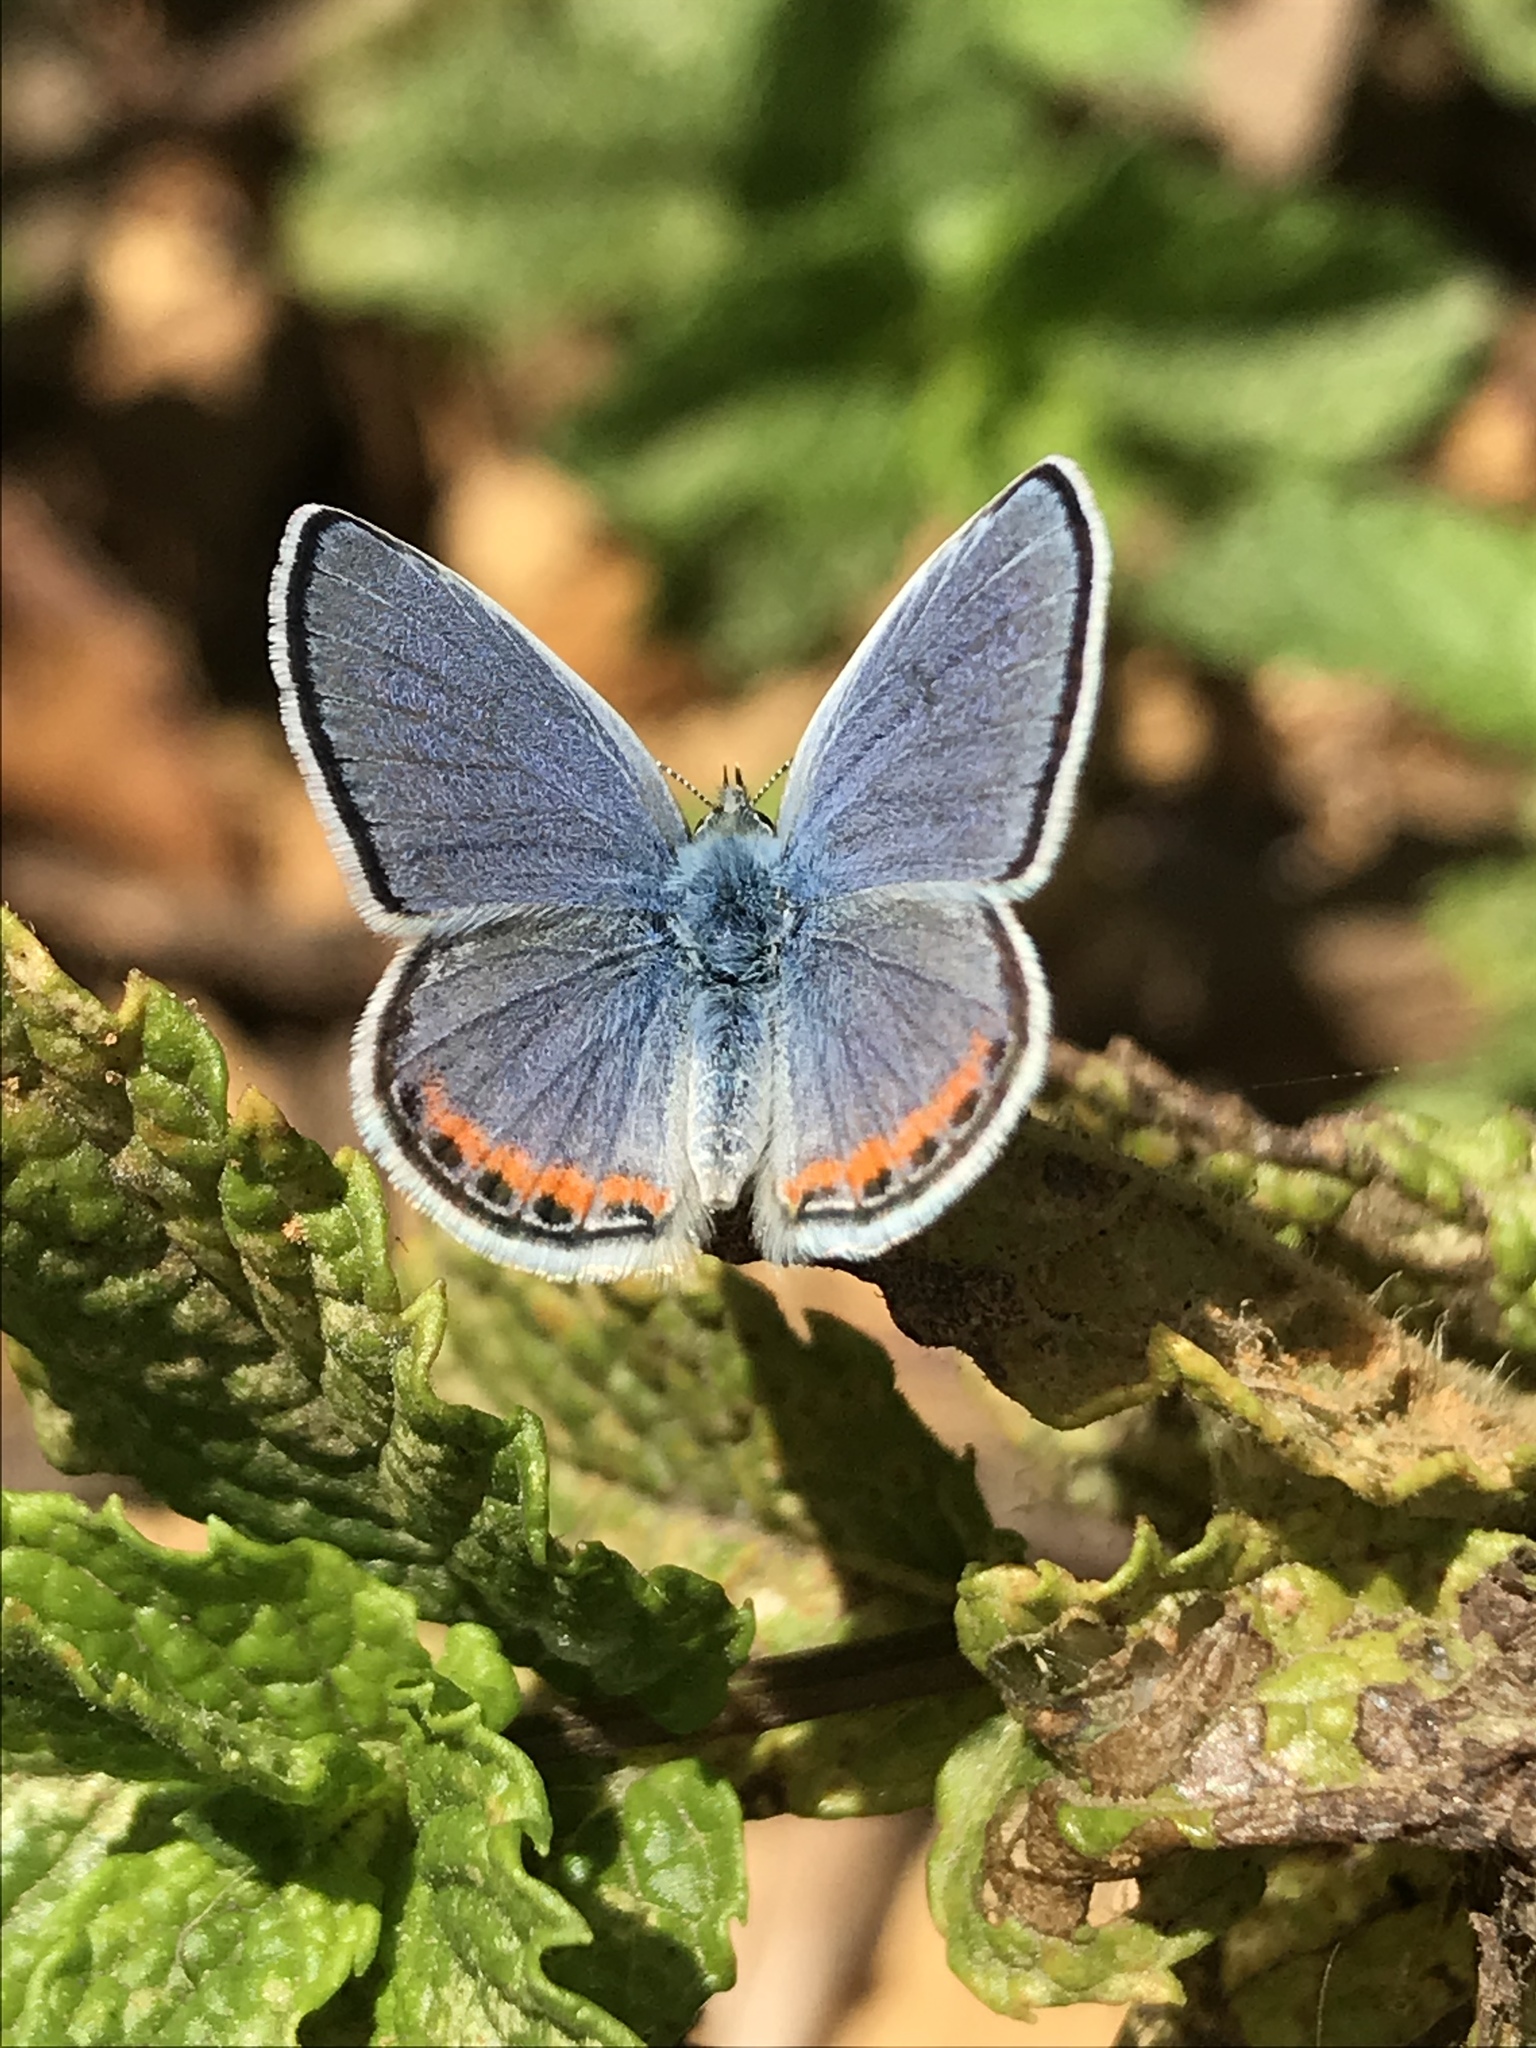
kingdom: Animalia
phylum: Arthropoda
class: Insecta
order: Lepidoptera
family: Lycaenidae
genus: Icaricia
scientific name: Icaricia acmon
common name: Acmon blue
